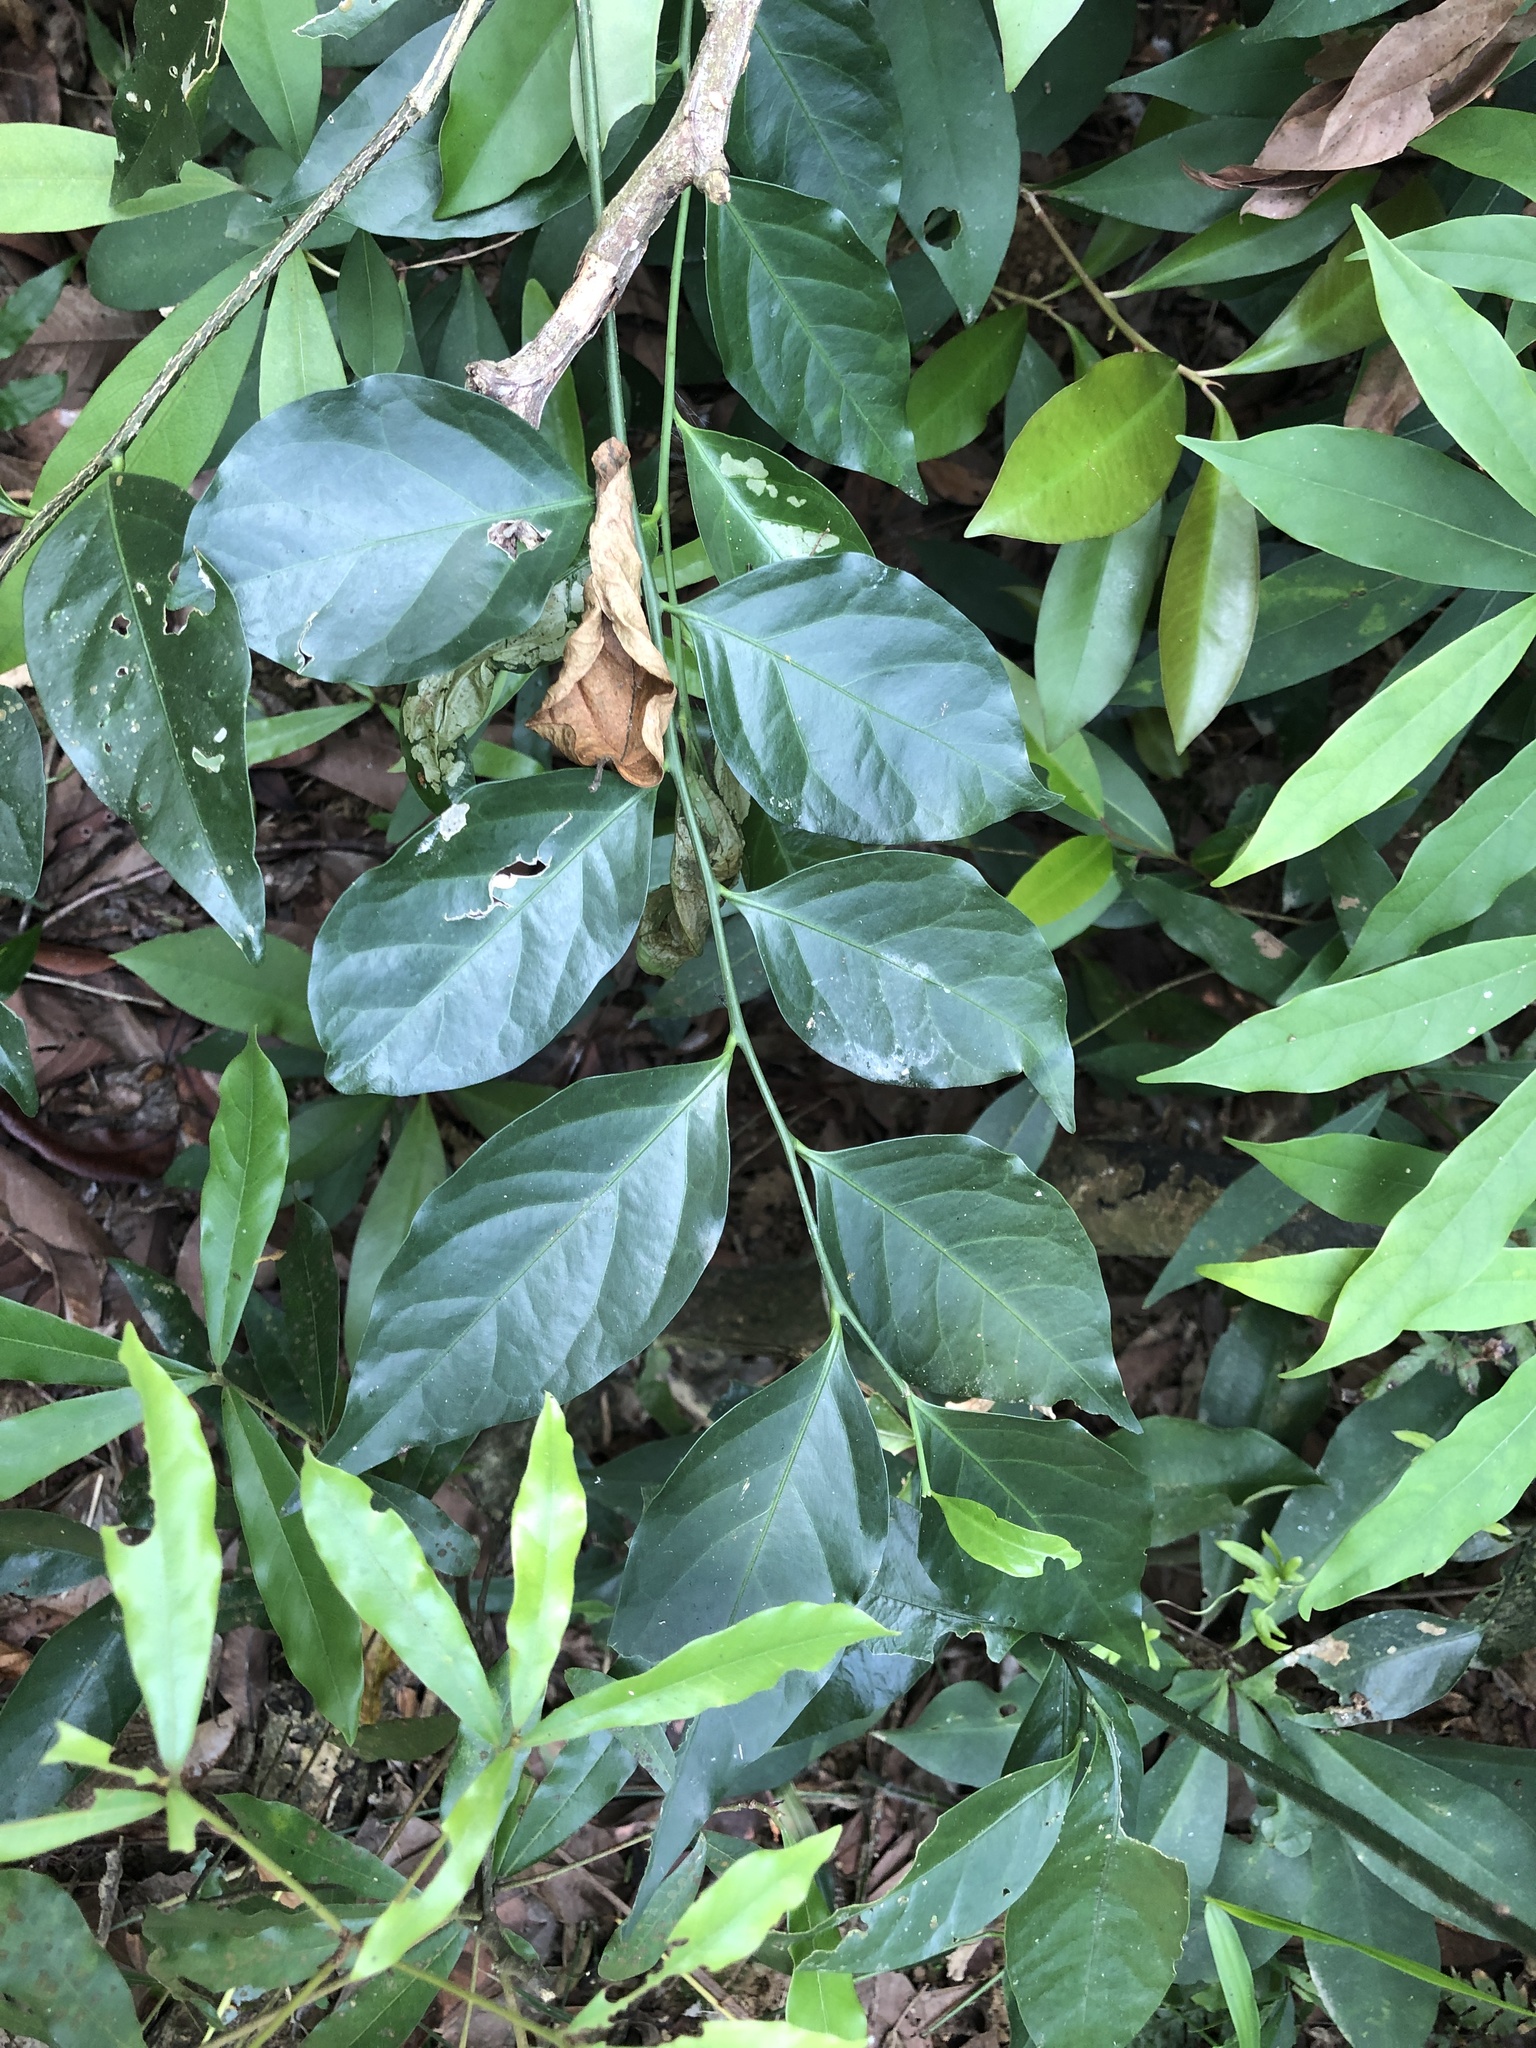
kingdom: Plantae
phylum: Tracheophyta
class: Magnoliopsida
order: Santalales
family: Opiliaceae
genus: Champereia
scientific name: Champereia manillana
